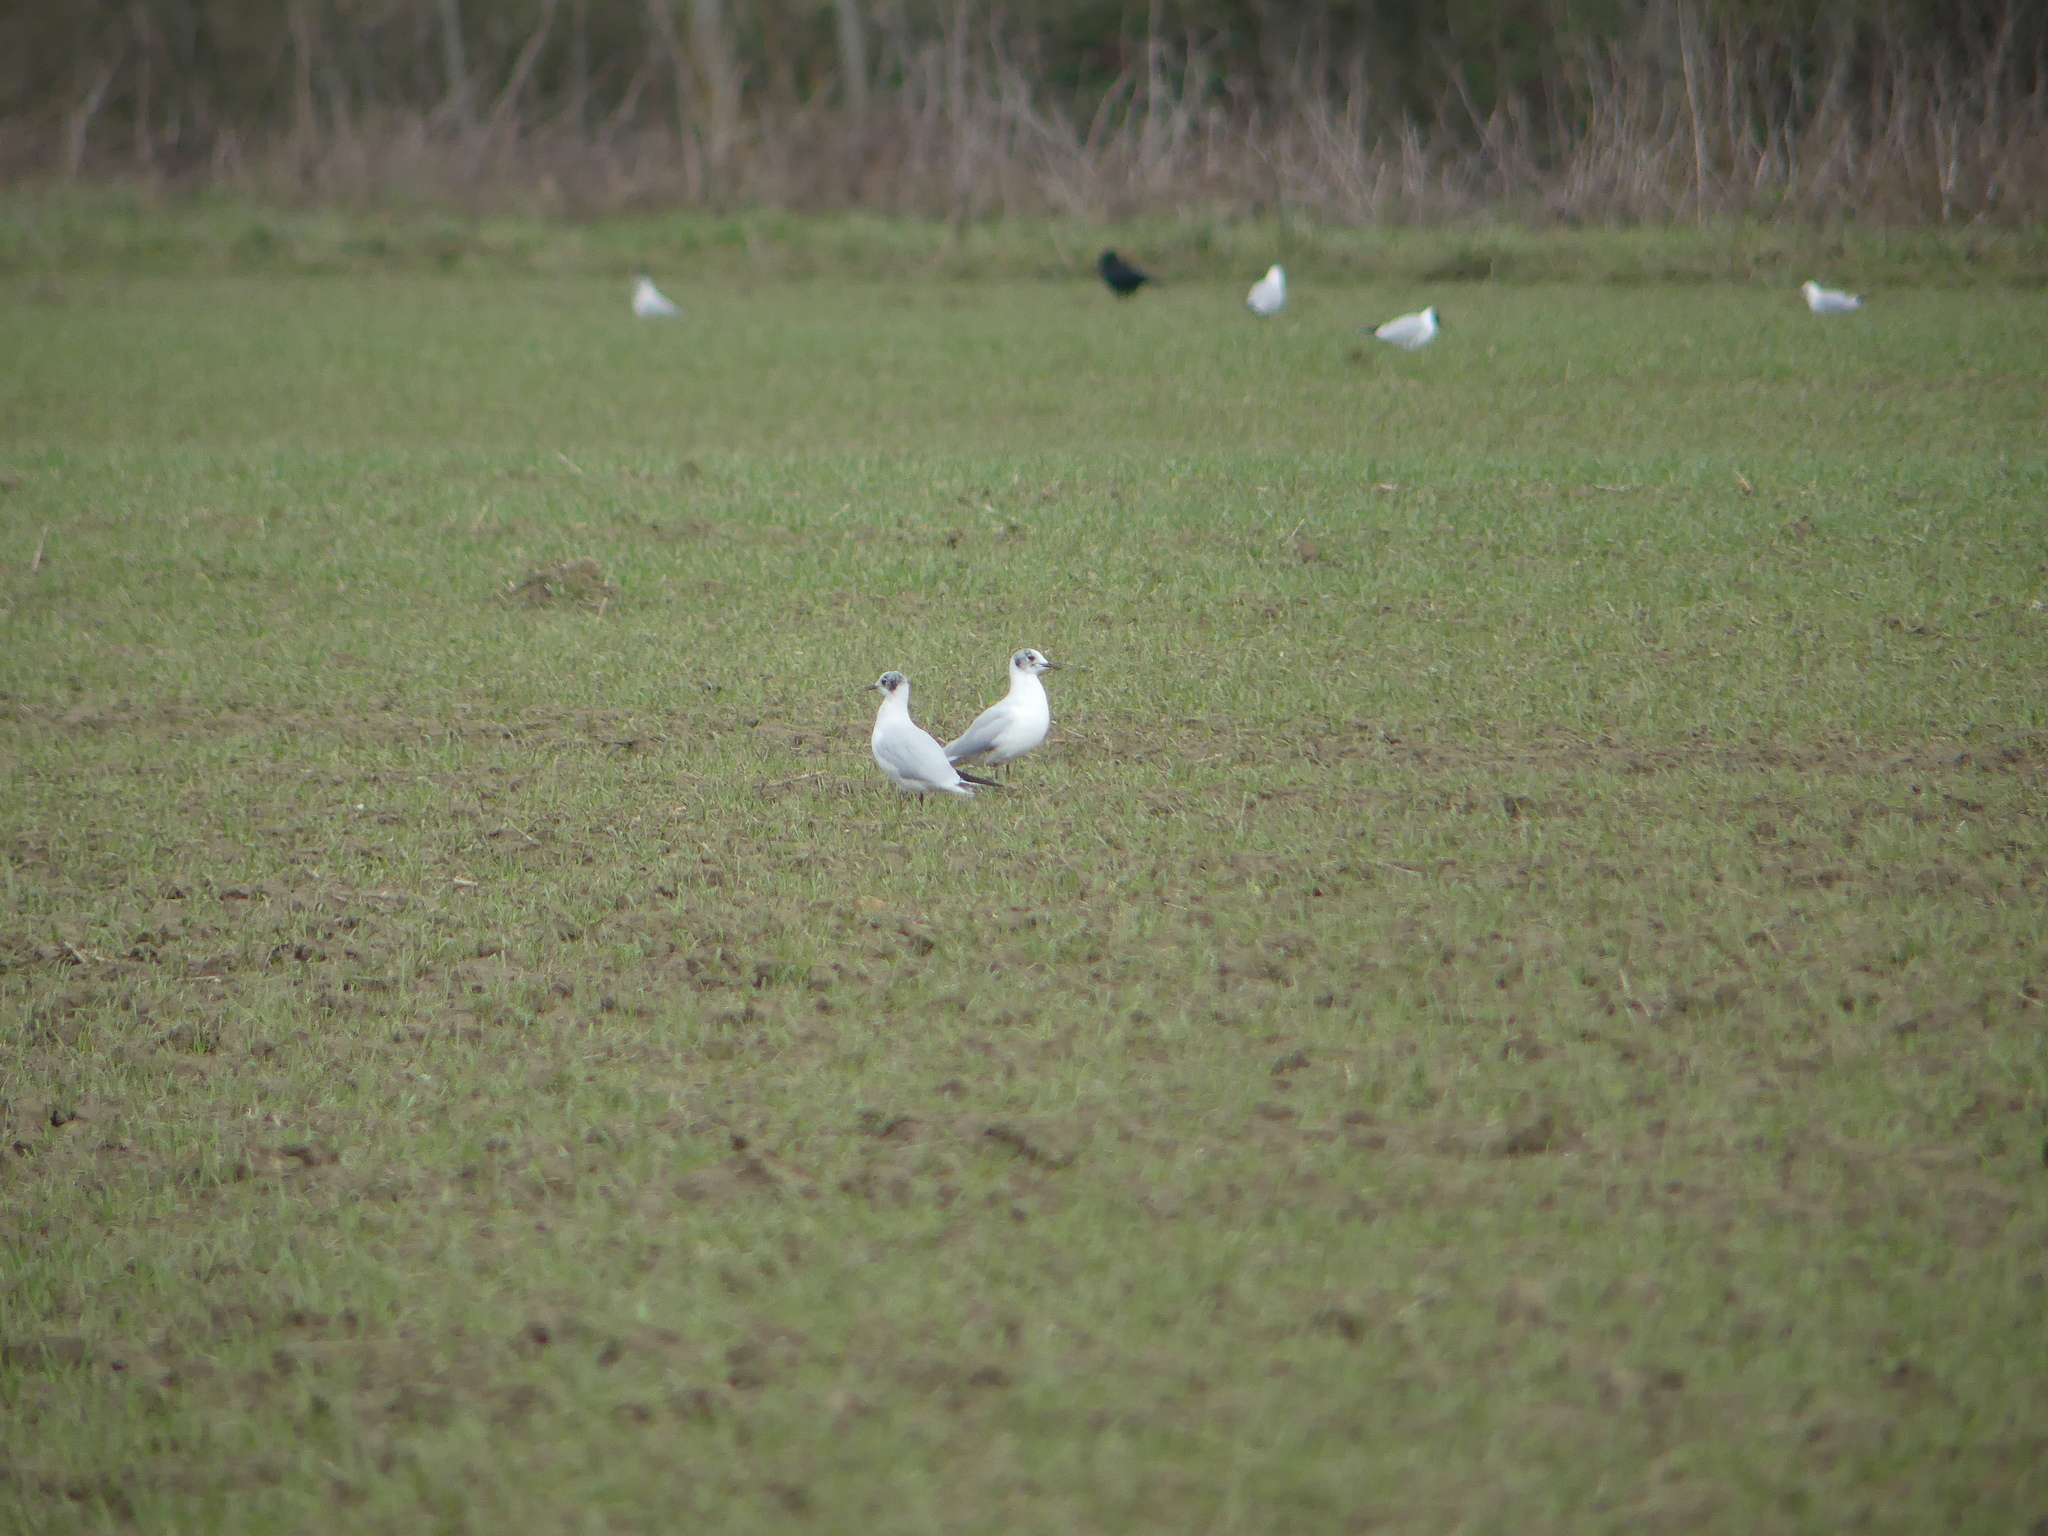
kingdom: Animalia
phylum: Chordata
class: Aves
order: Charadriiformes
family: Laridae
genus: Chroicocephalus
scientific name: Chroicocephalus ridibundus
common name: Black-headed gull
